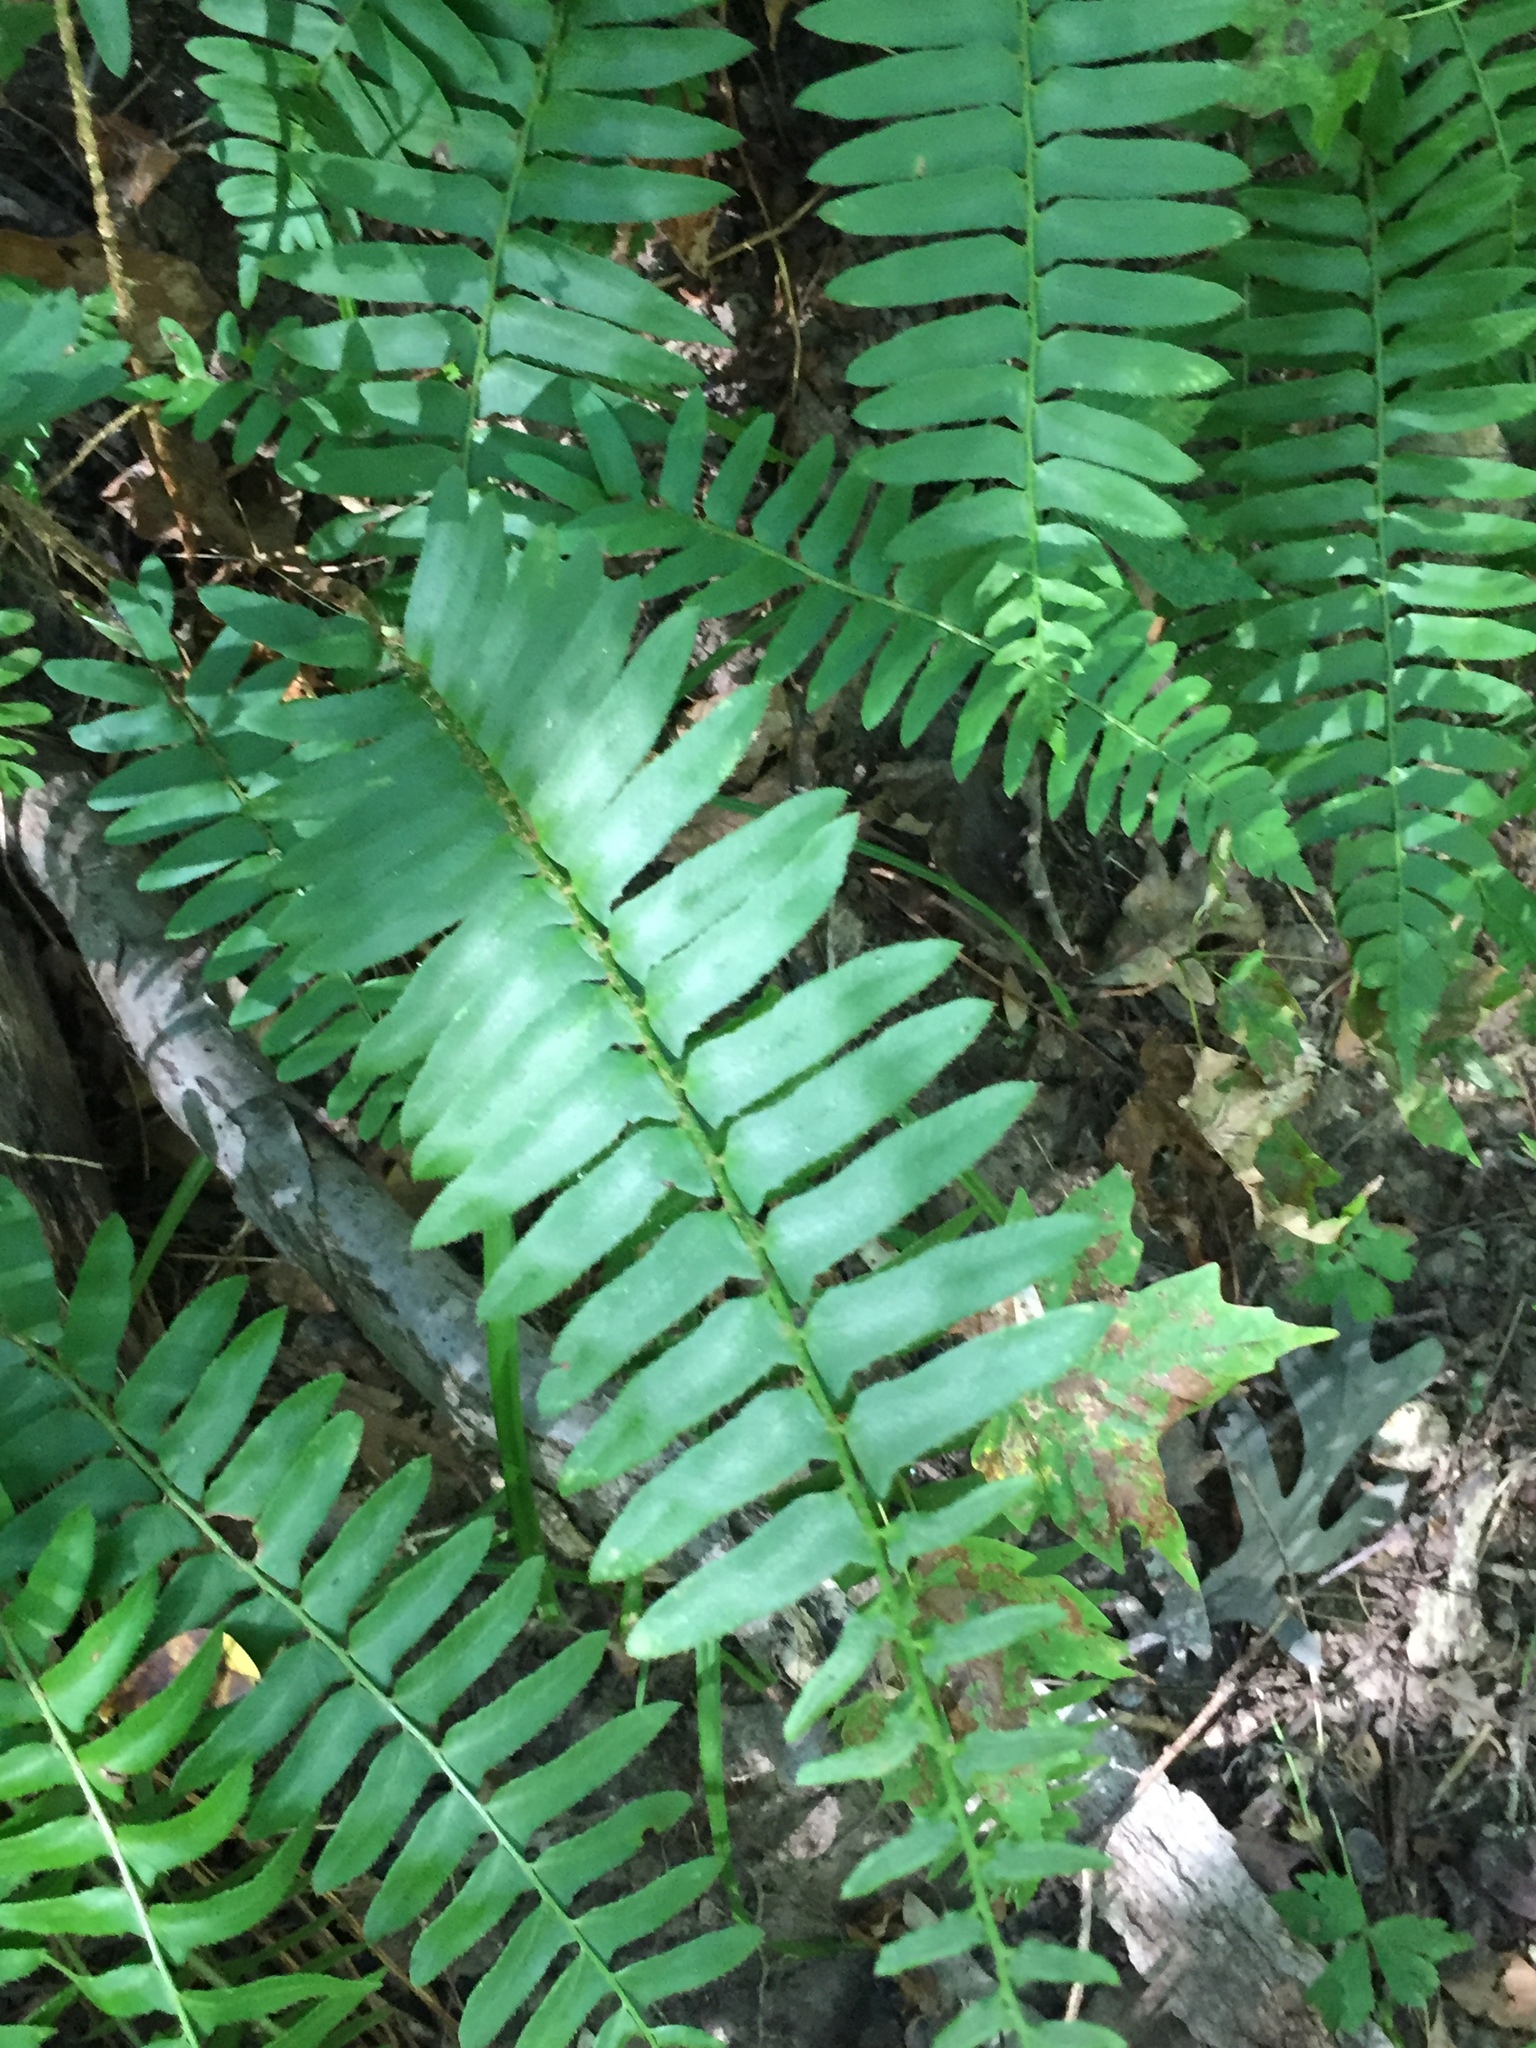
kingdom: Plantae
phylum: Tracheophyta
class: Polypodiopsida
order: Polypodiales
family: Dryopteridaceae
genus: Polystichum
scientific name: Polystichum acrostichoides
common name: Christmas fern
